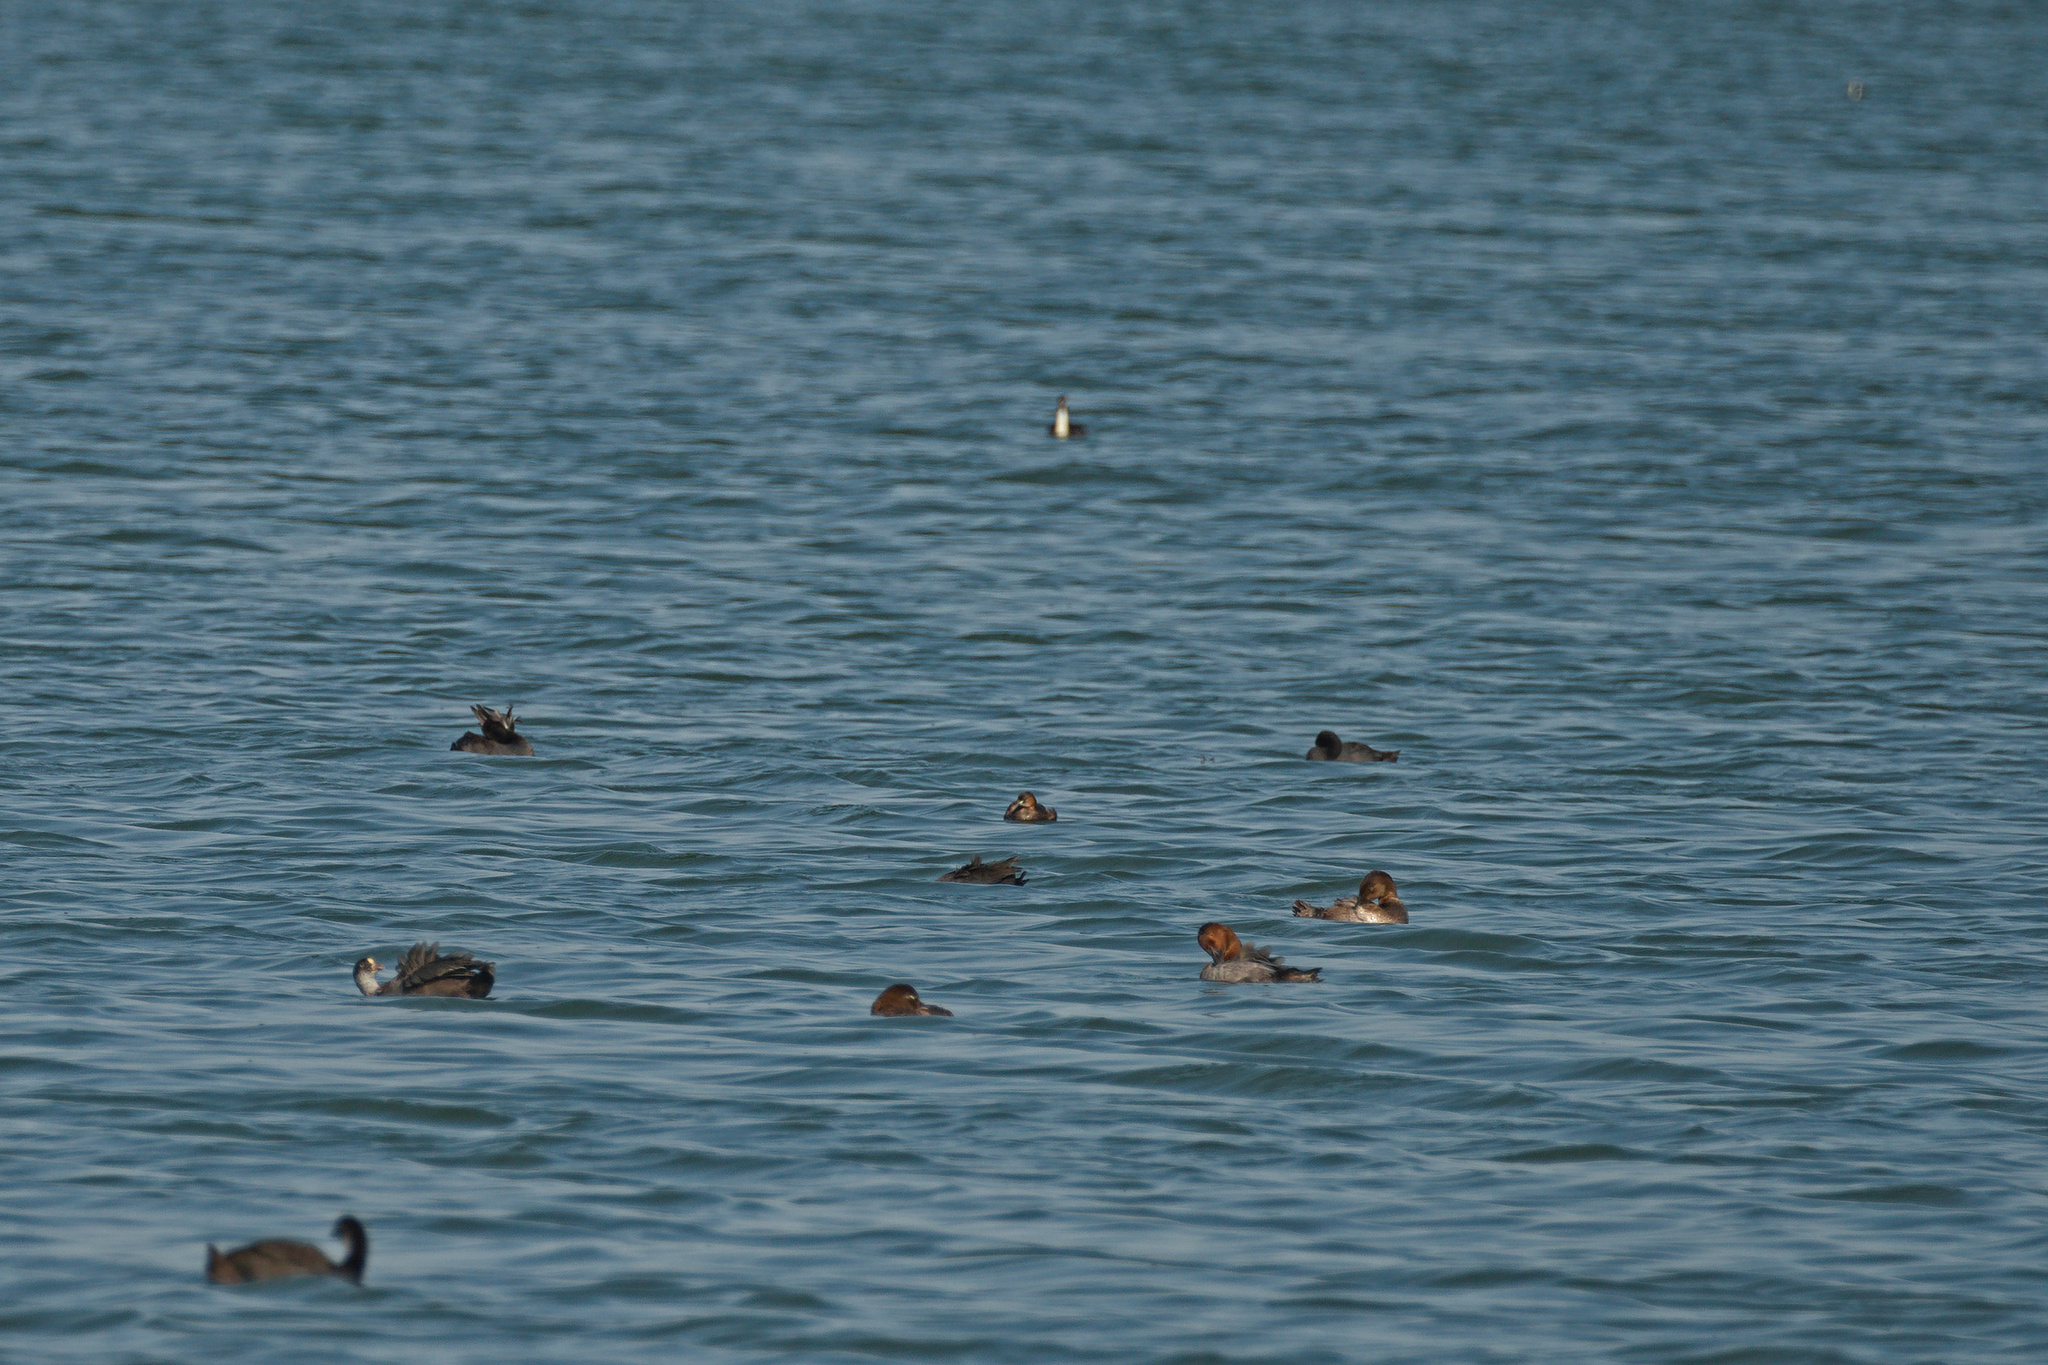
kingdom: Animalia
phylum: Chordata
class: Aves
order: Anseriformes
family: Anatidae
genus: Aythya
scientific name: Aythya ferina
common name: Common pochard
